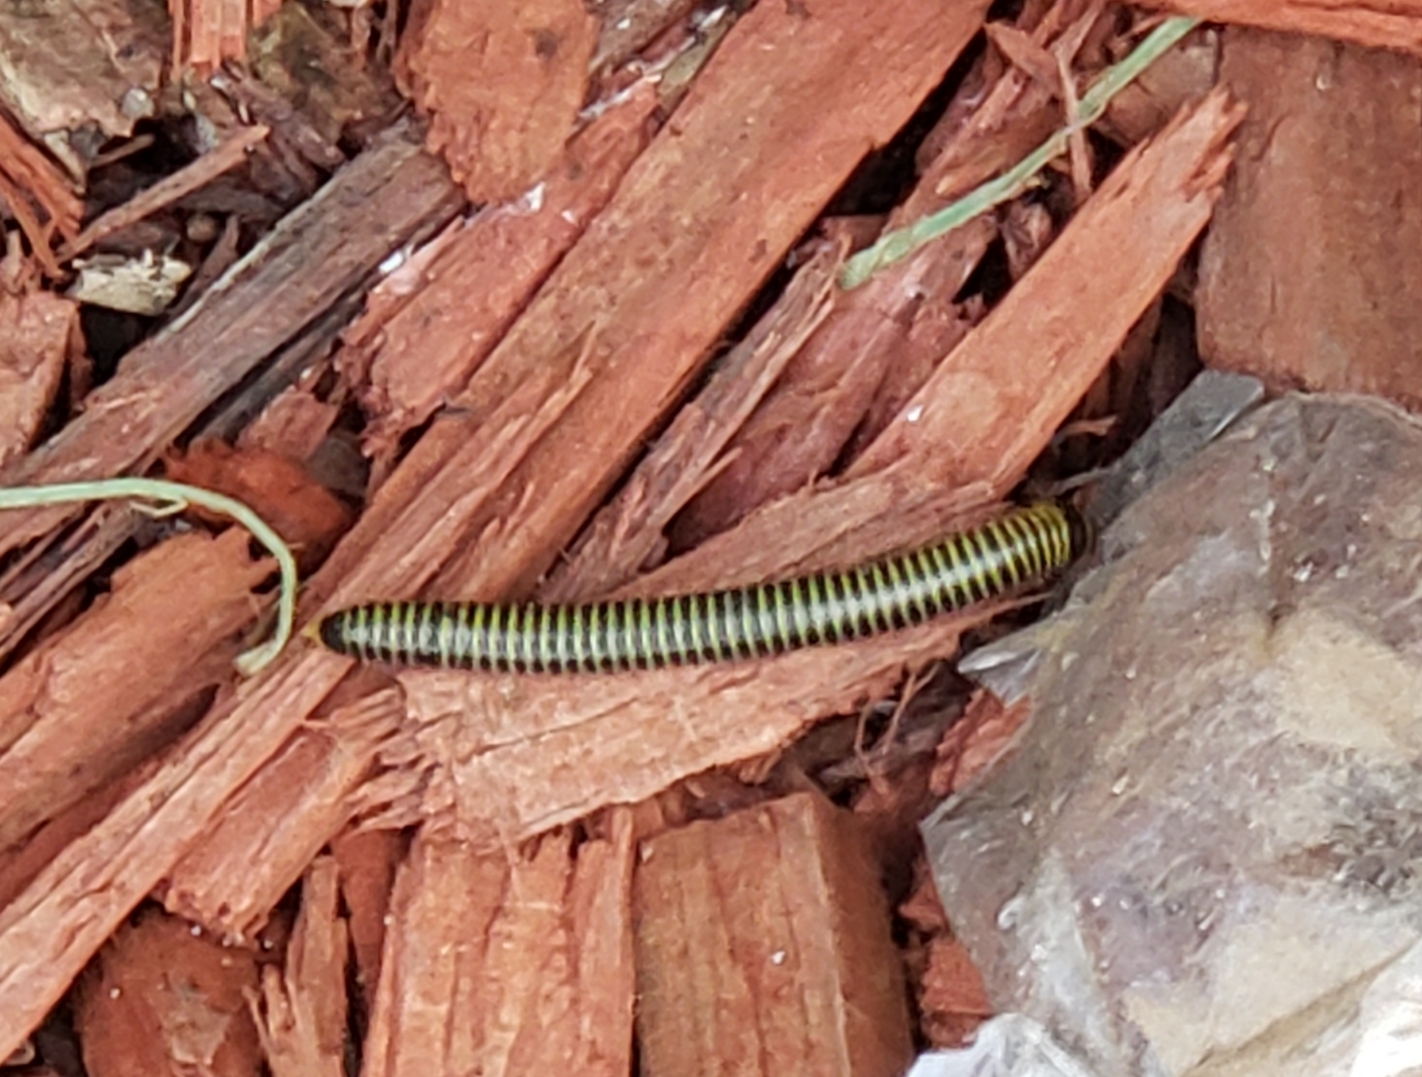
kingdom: Animalia
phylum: Arthropoda
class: Diplopoda
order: Spirobolida
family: Rhinocricidae
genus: Anadenobolus
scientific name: Anadenobolus monilicornis
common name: Caribbean millipede
